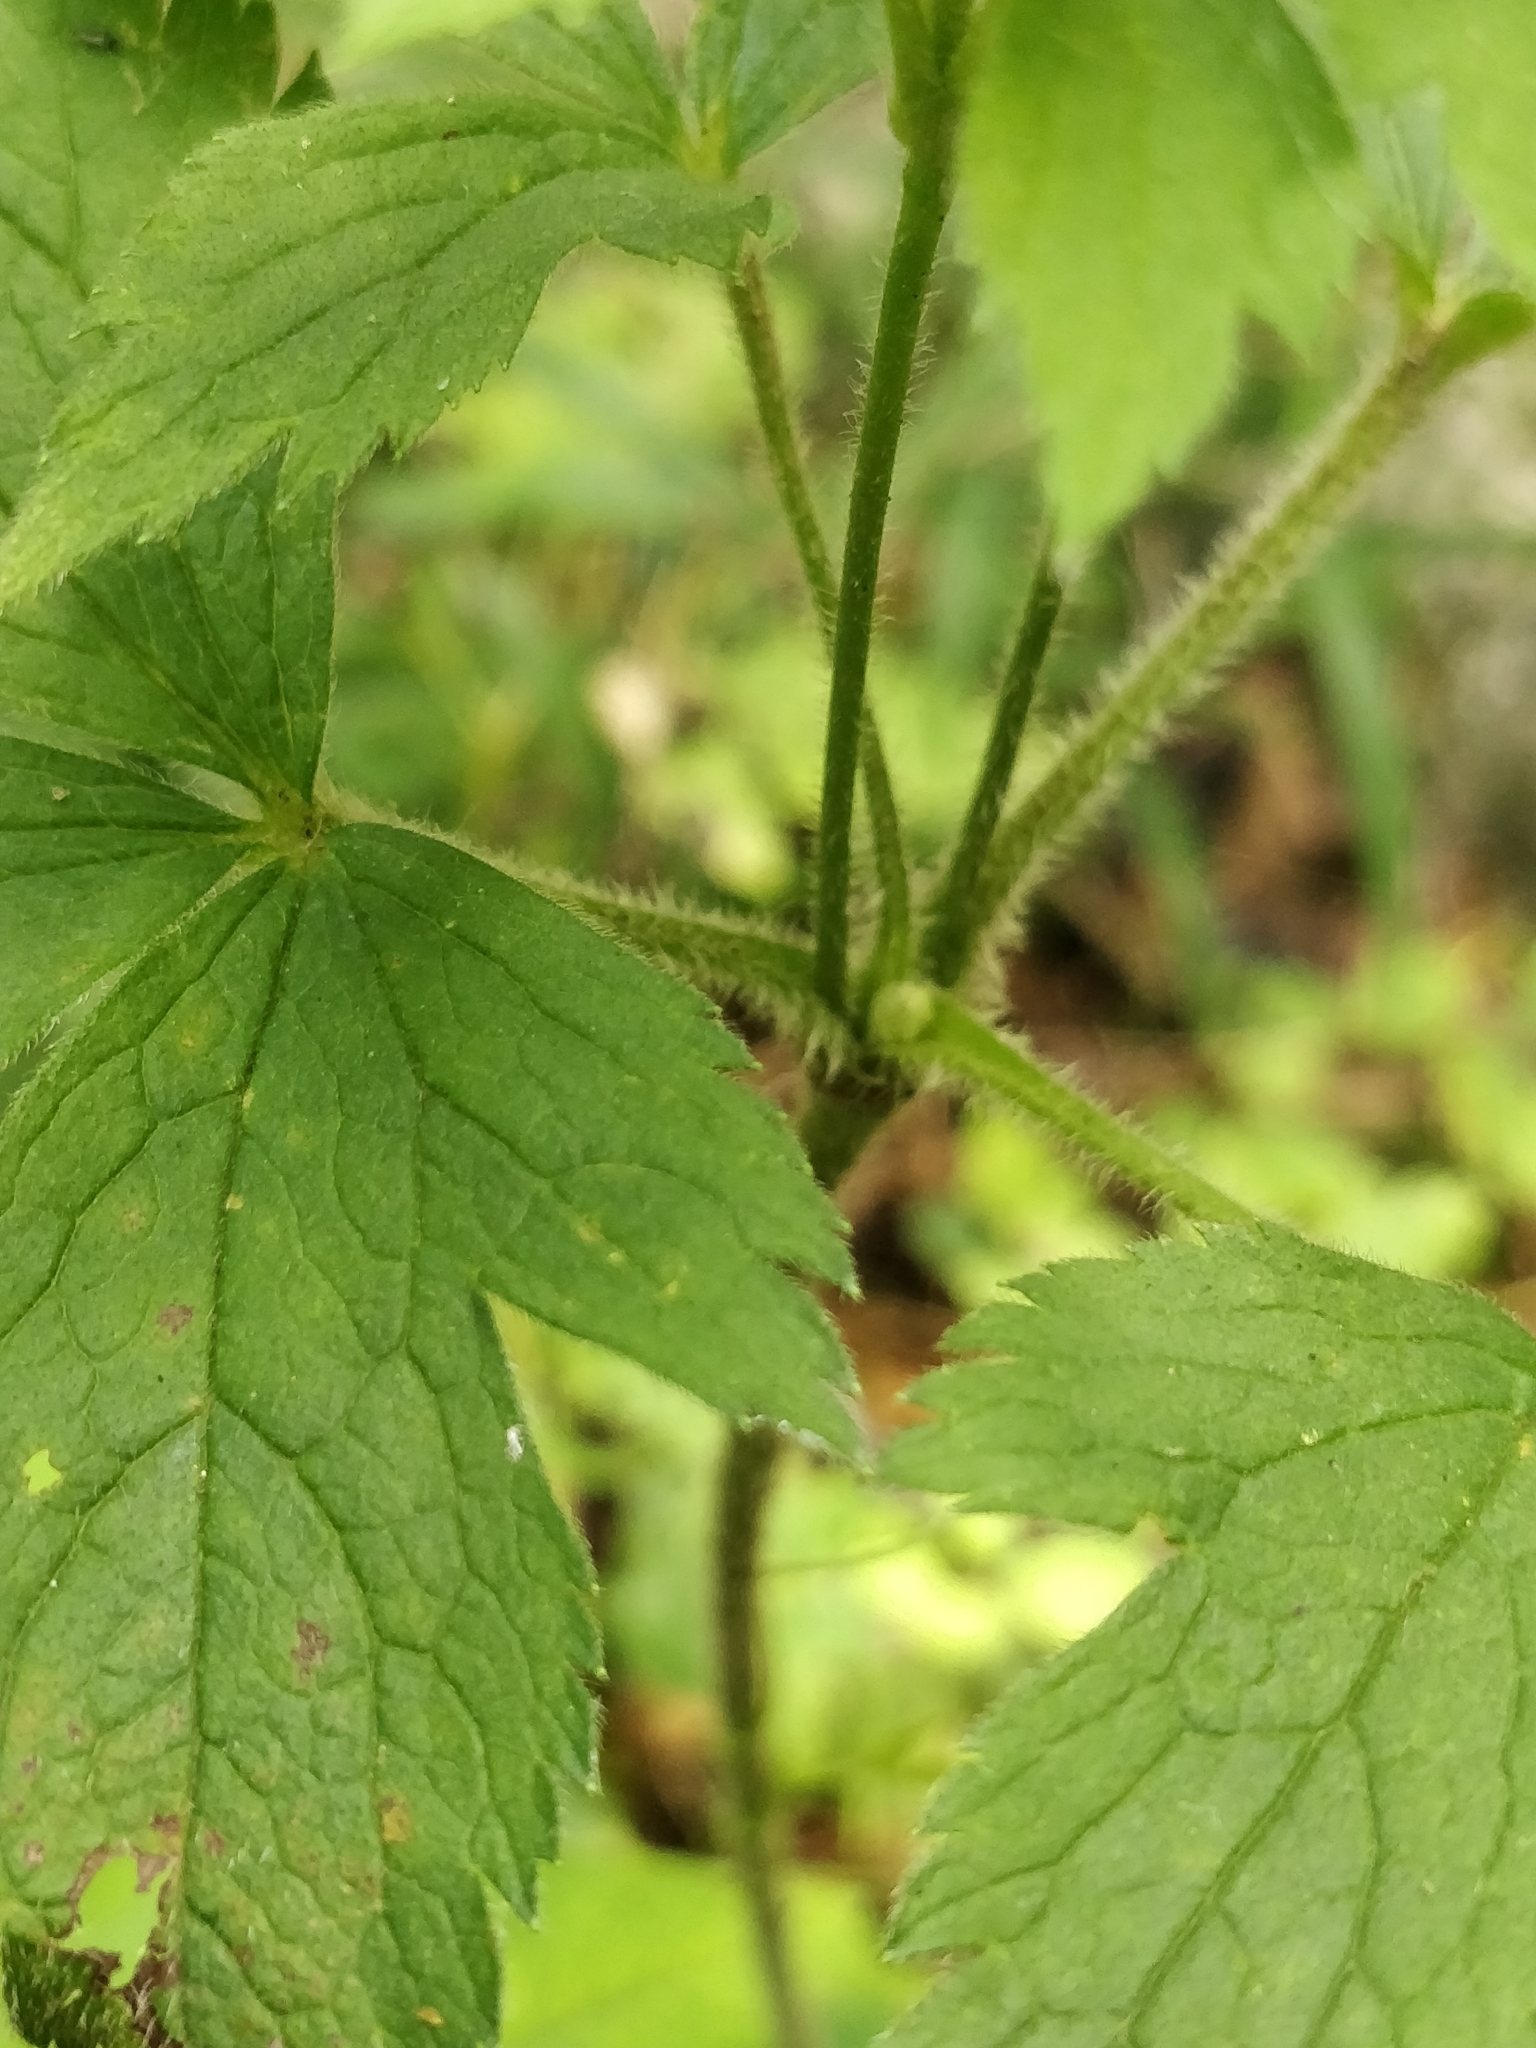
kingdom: Plantae
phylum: Tracheophyta
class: Magnoliopsida
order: Ranunculales
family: Ranunculaceae
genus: Anemone
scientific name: Anemone virginiana
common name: Tall anemone
